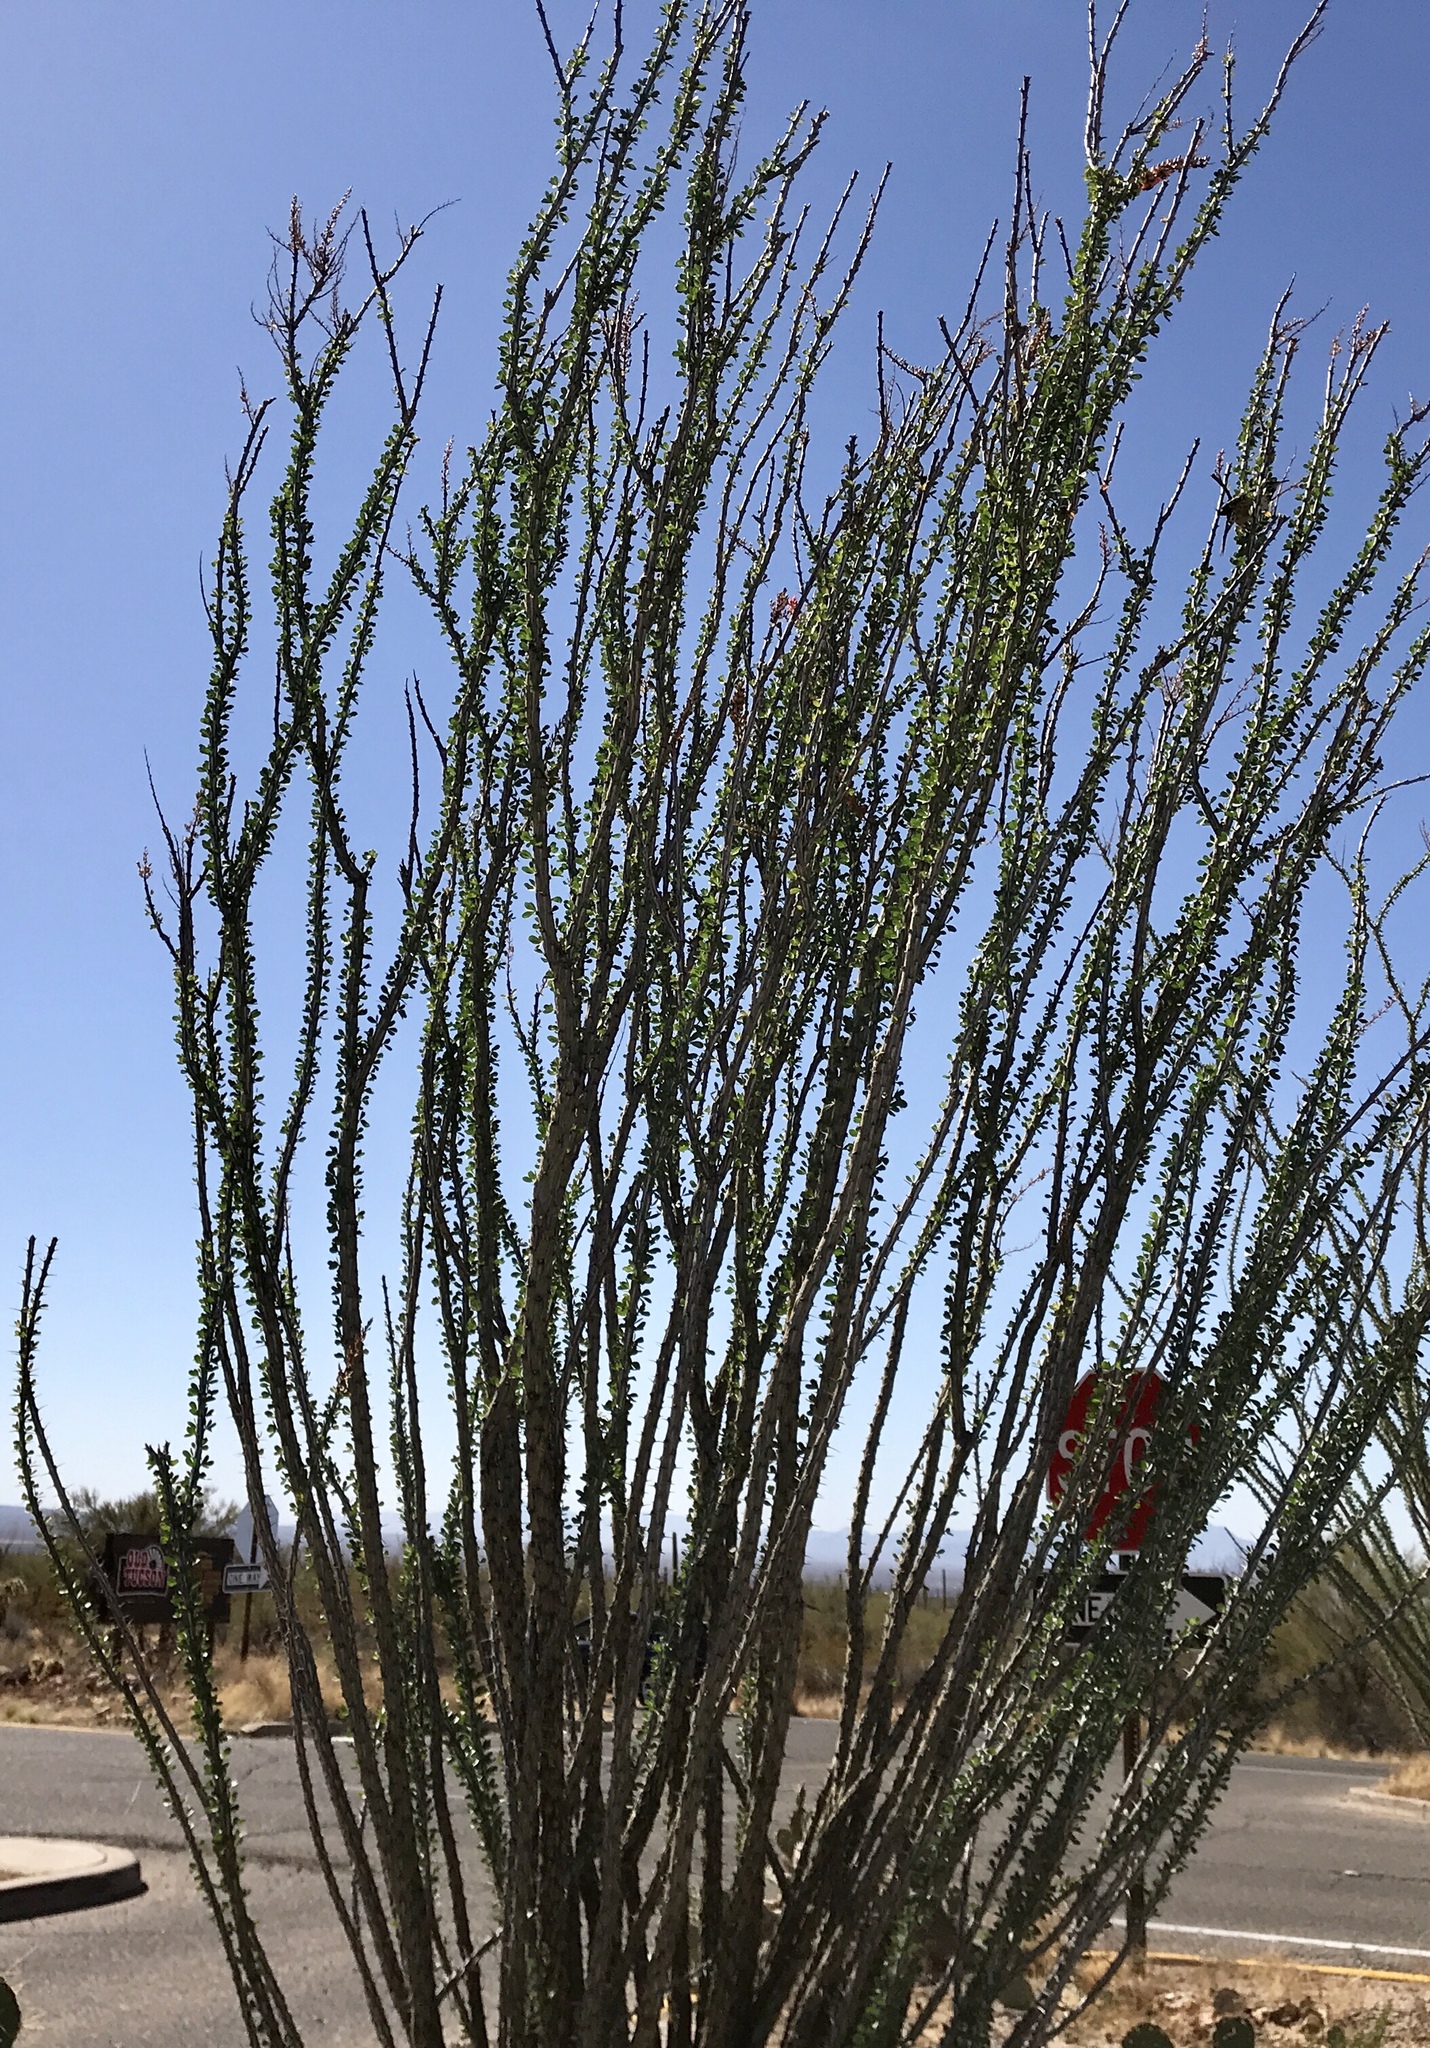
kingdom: Plantae
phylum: Tracheophyta
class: Magnoliopsida
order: Ericales
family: Fouquieriaceae
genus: Fouquieria
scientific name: Fouquieria splendens
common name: Vine-cactus
